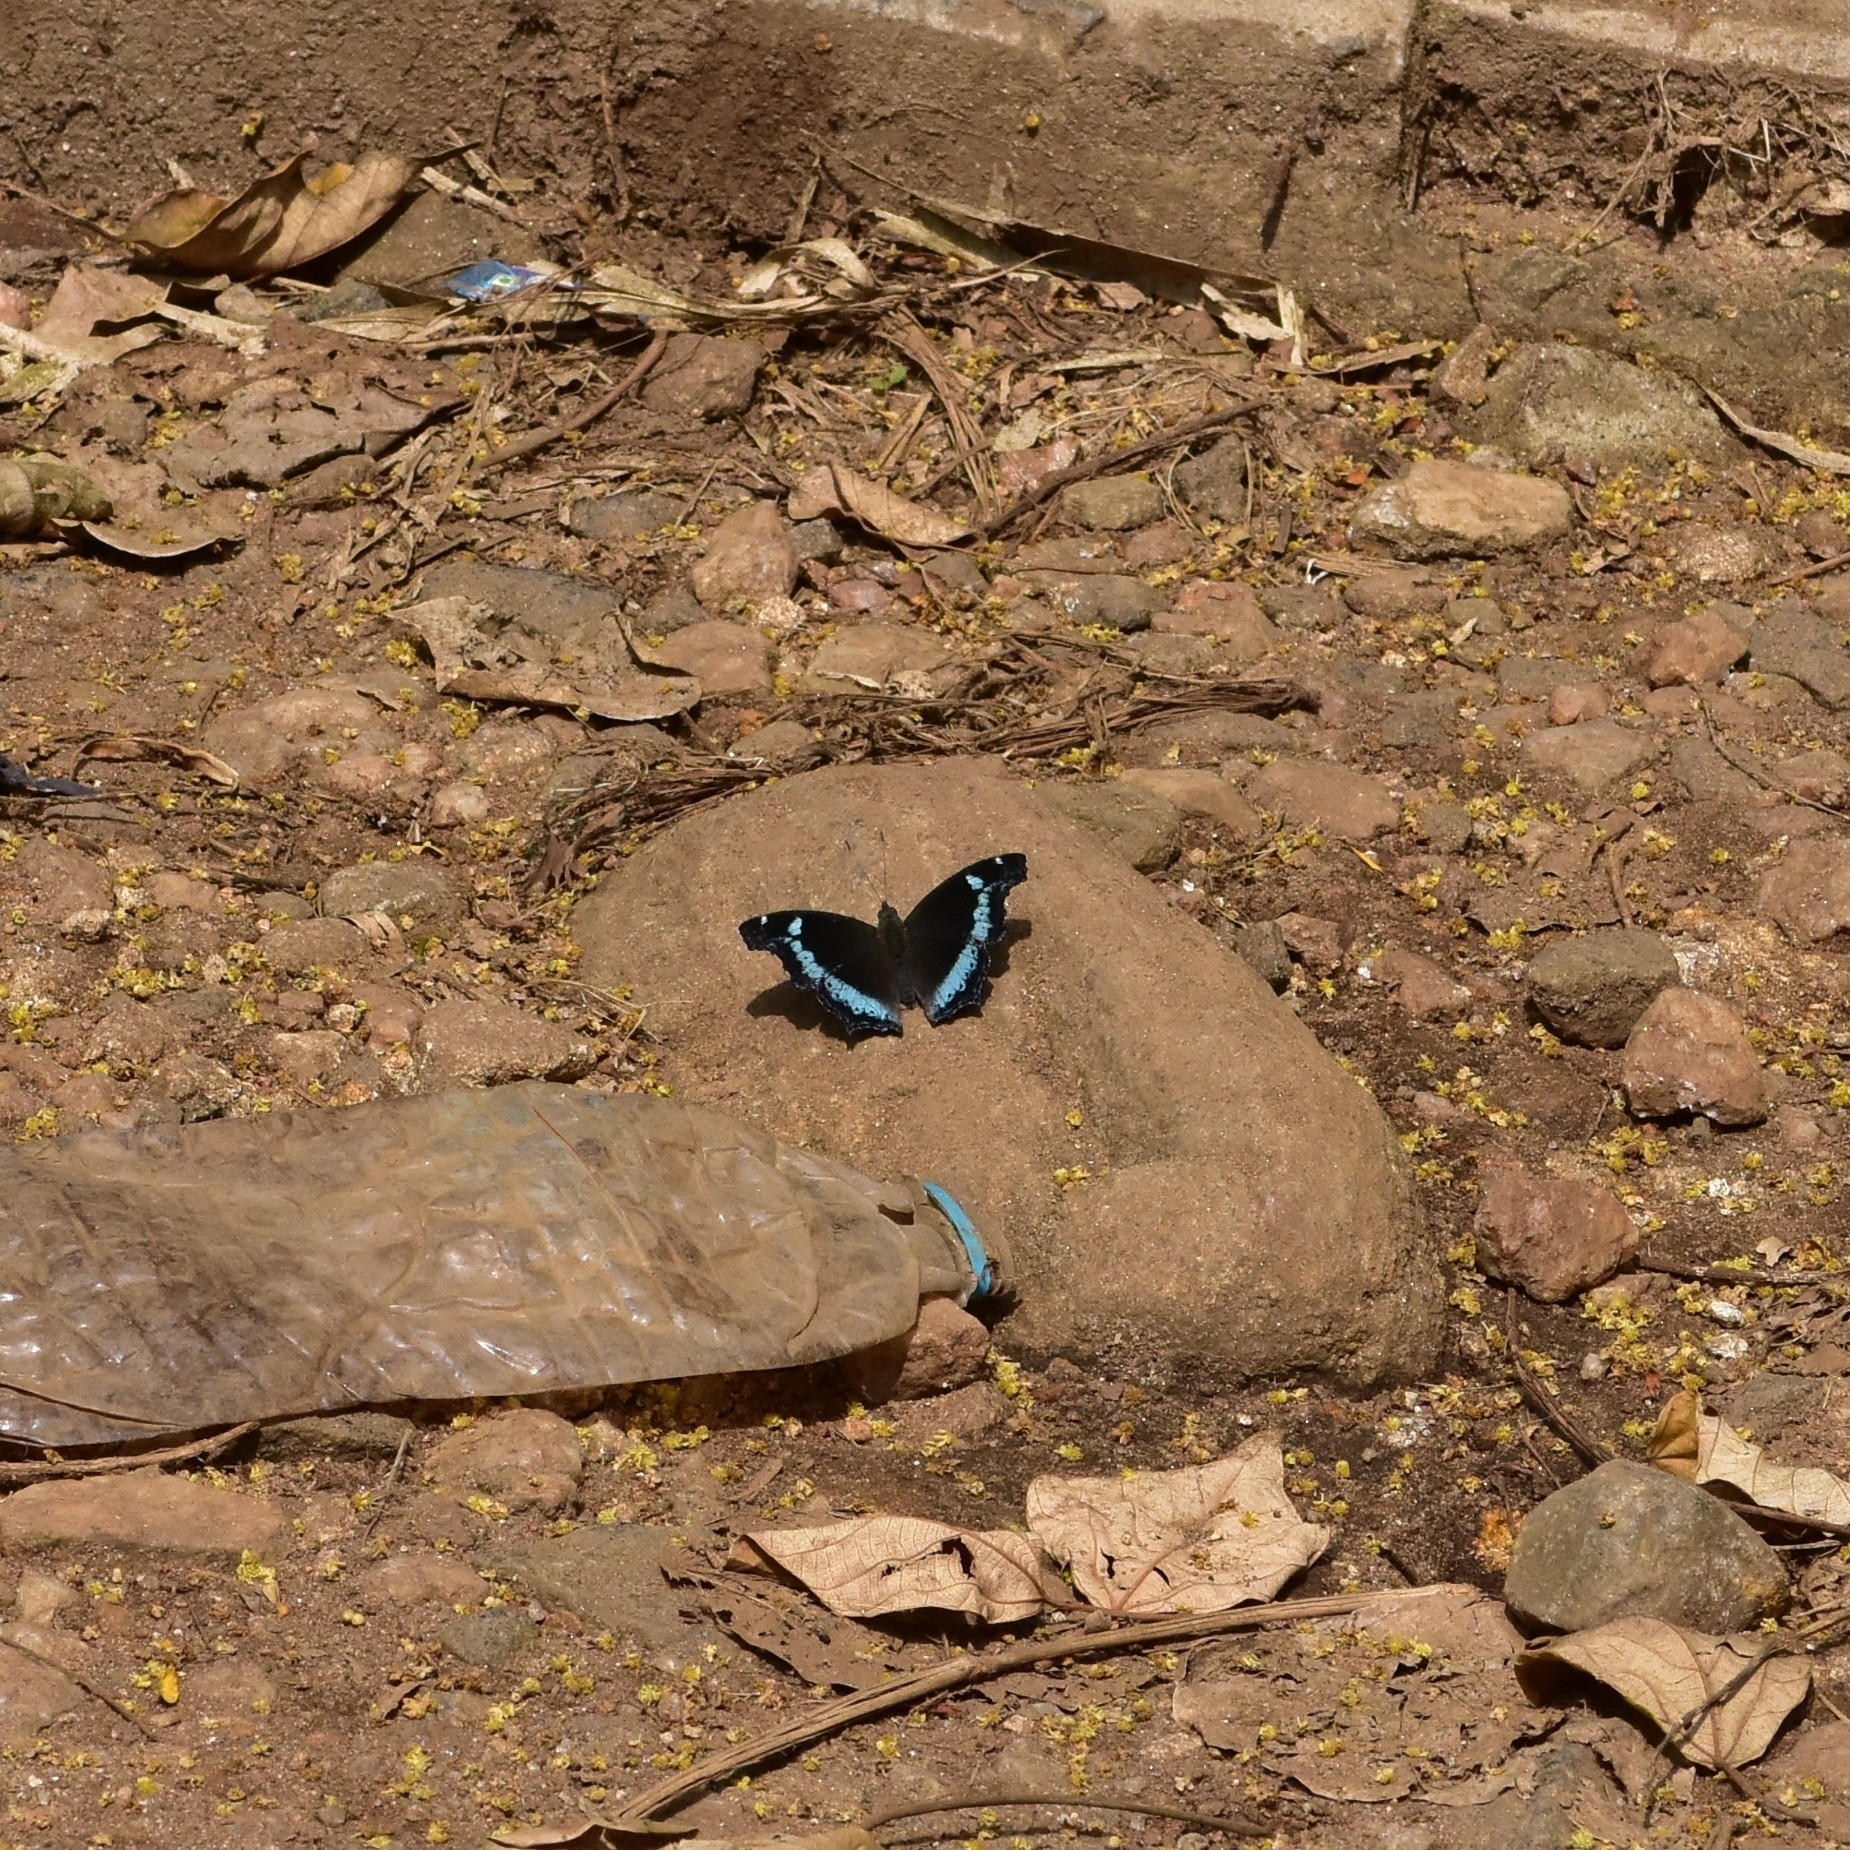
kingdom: Animalia
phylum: Arthropoda
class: Insecta
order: Lepidoptera
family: Nymphalidae
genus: Vanessa
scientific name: Vanessa Kaniska canace
